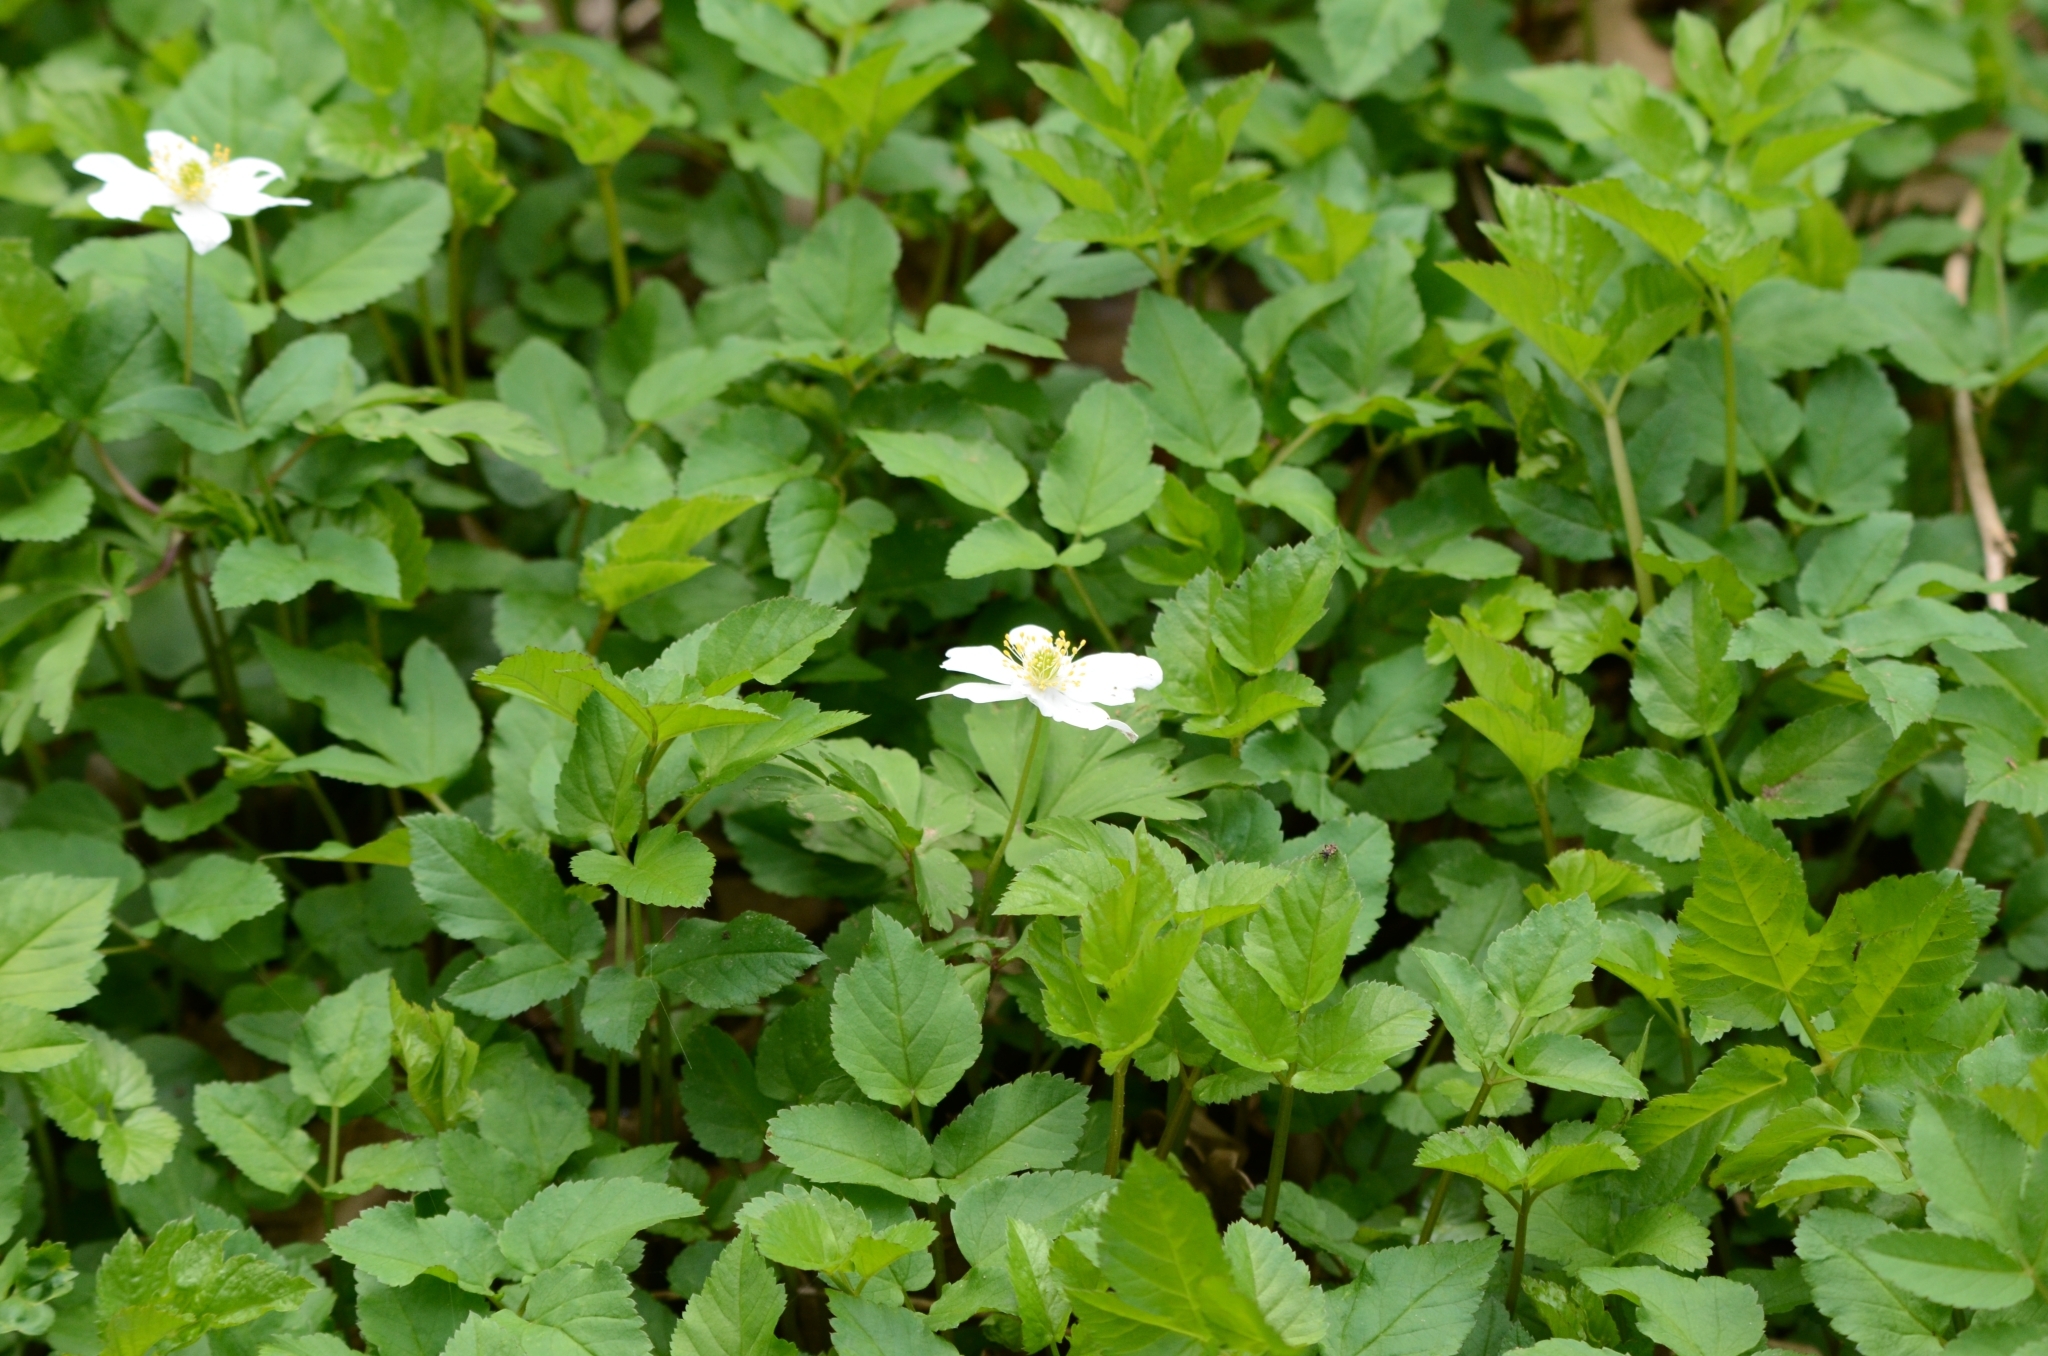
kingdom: Plantae
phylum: Tracheophyta
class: Magnoliopsida
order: Ranunculales
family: Ranunculaceae
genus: Anemone
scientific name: Anemone nemorosa
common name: Wood anemone
